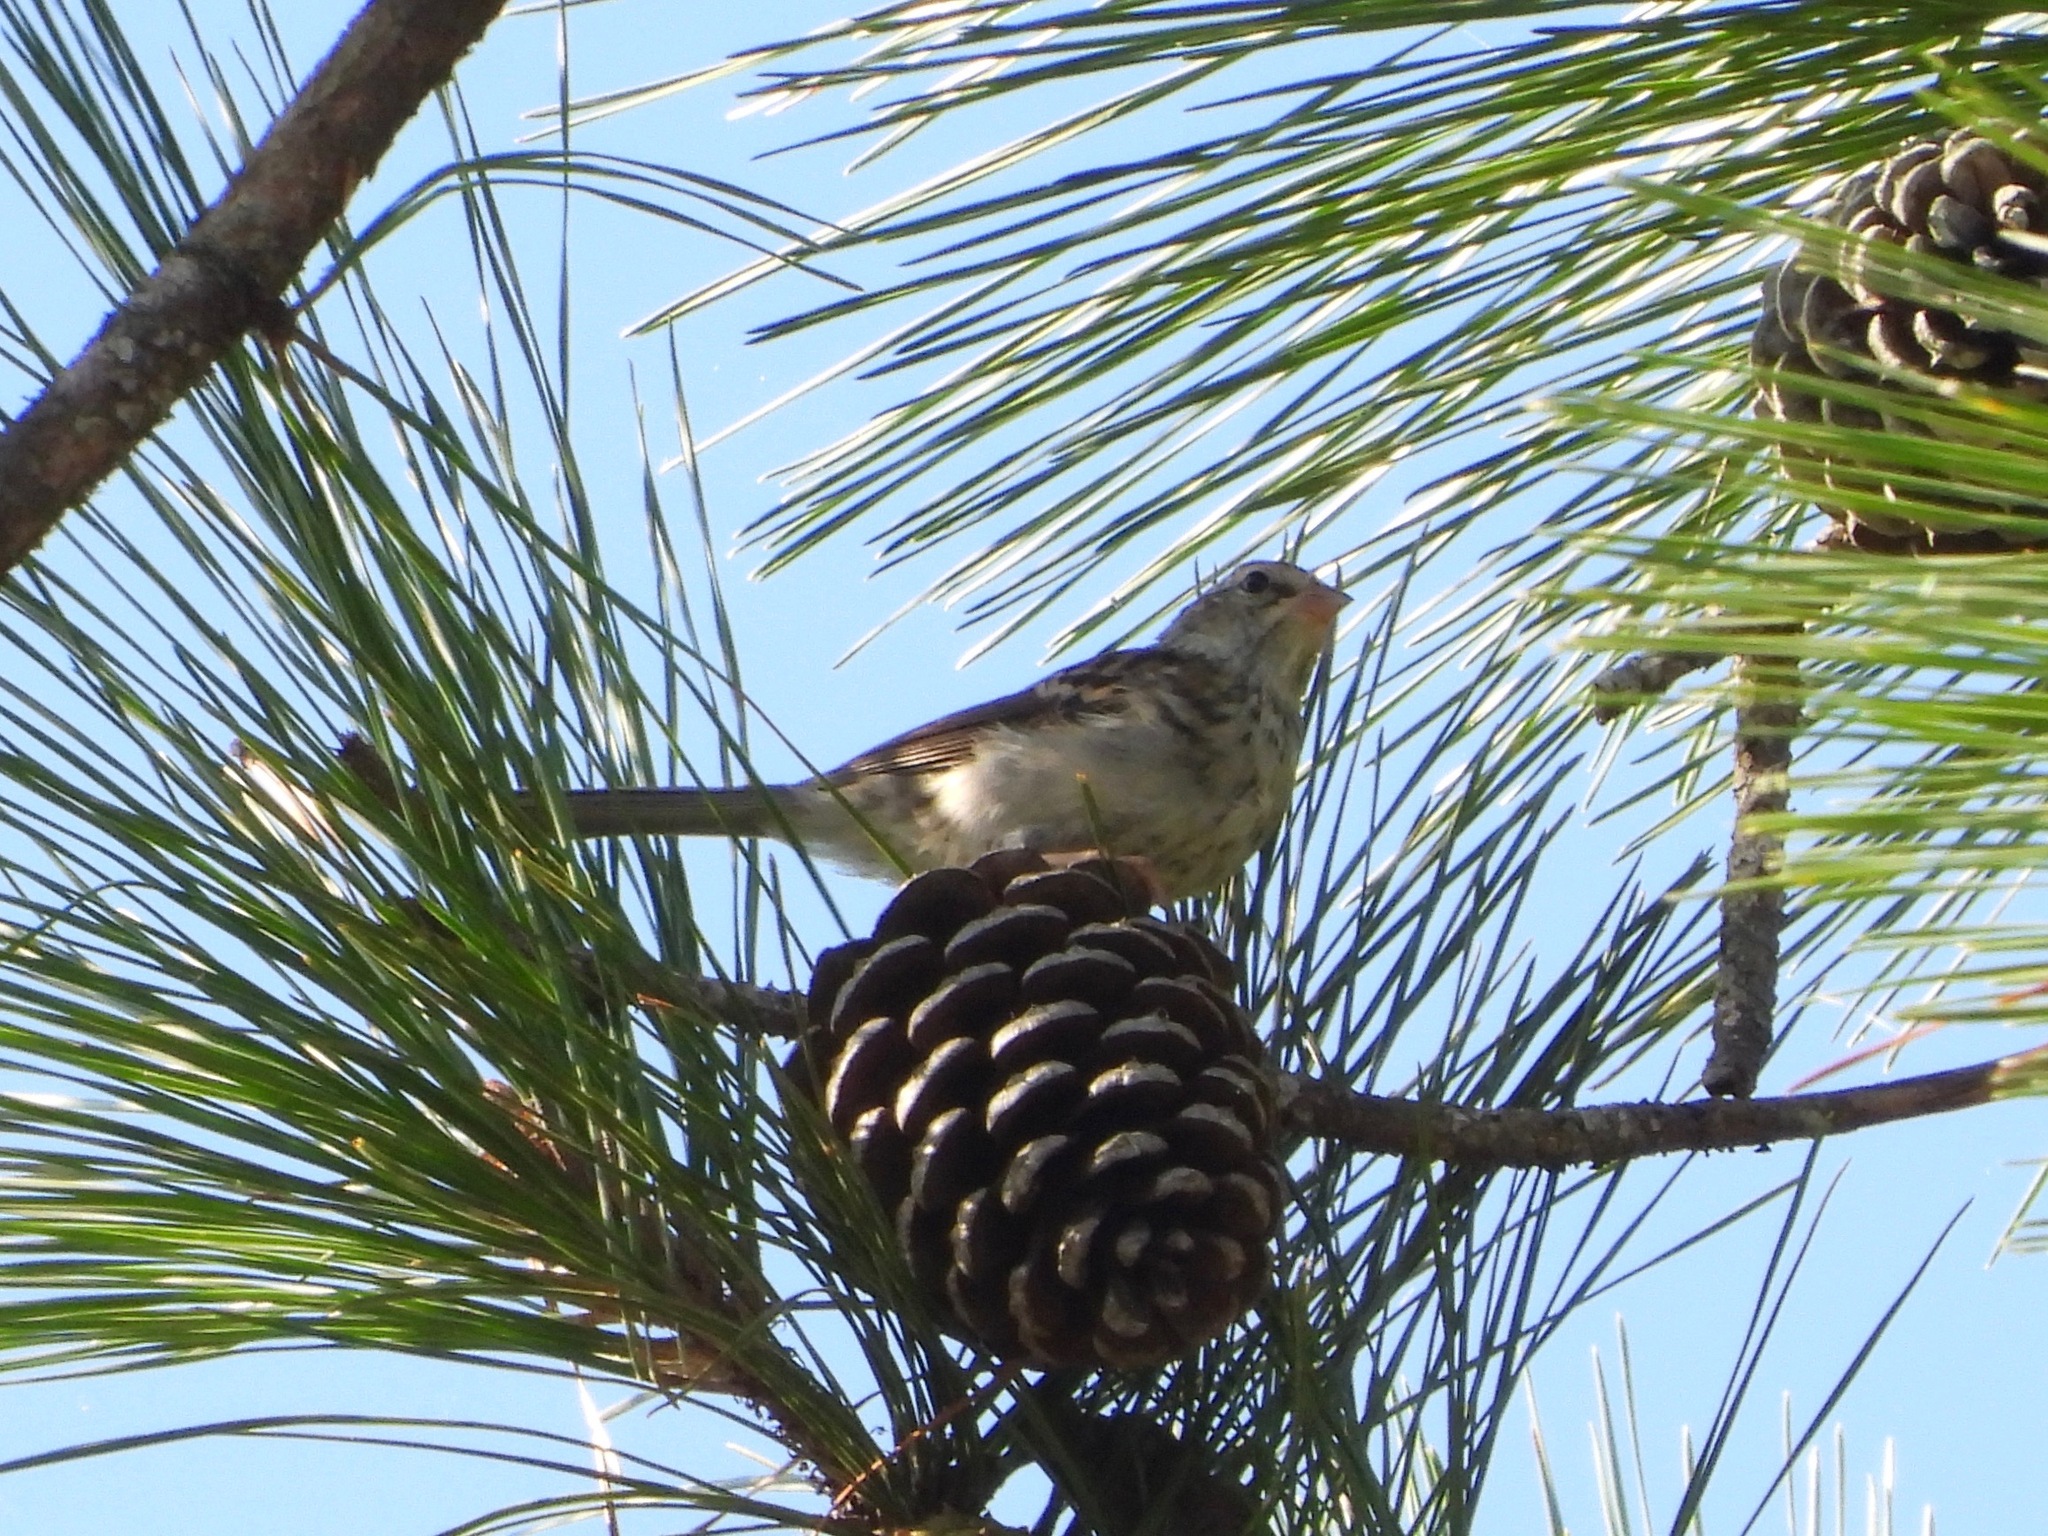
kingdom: Animalia
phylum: Chordata
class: Aves
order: Passeriformes
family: Passerellidae
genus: Spizella
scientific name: Spizella passerina
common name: Chipping sparrow
